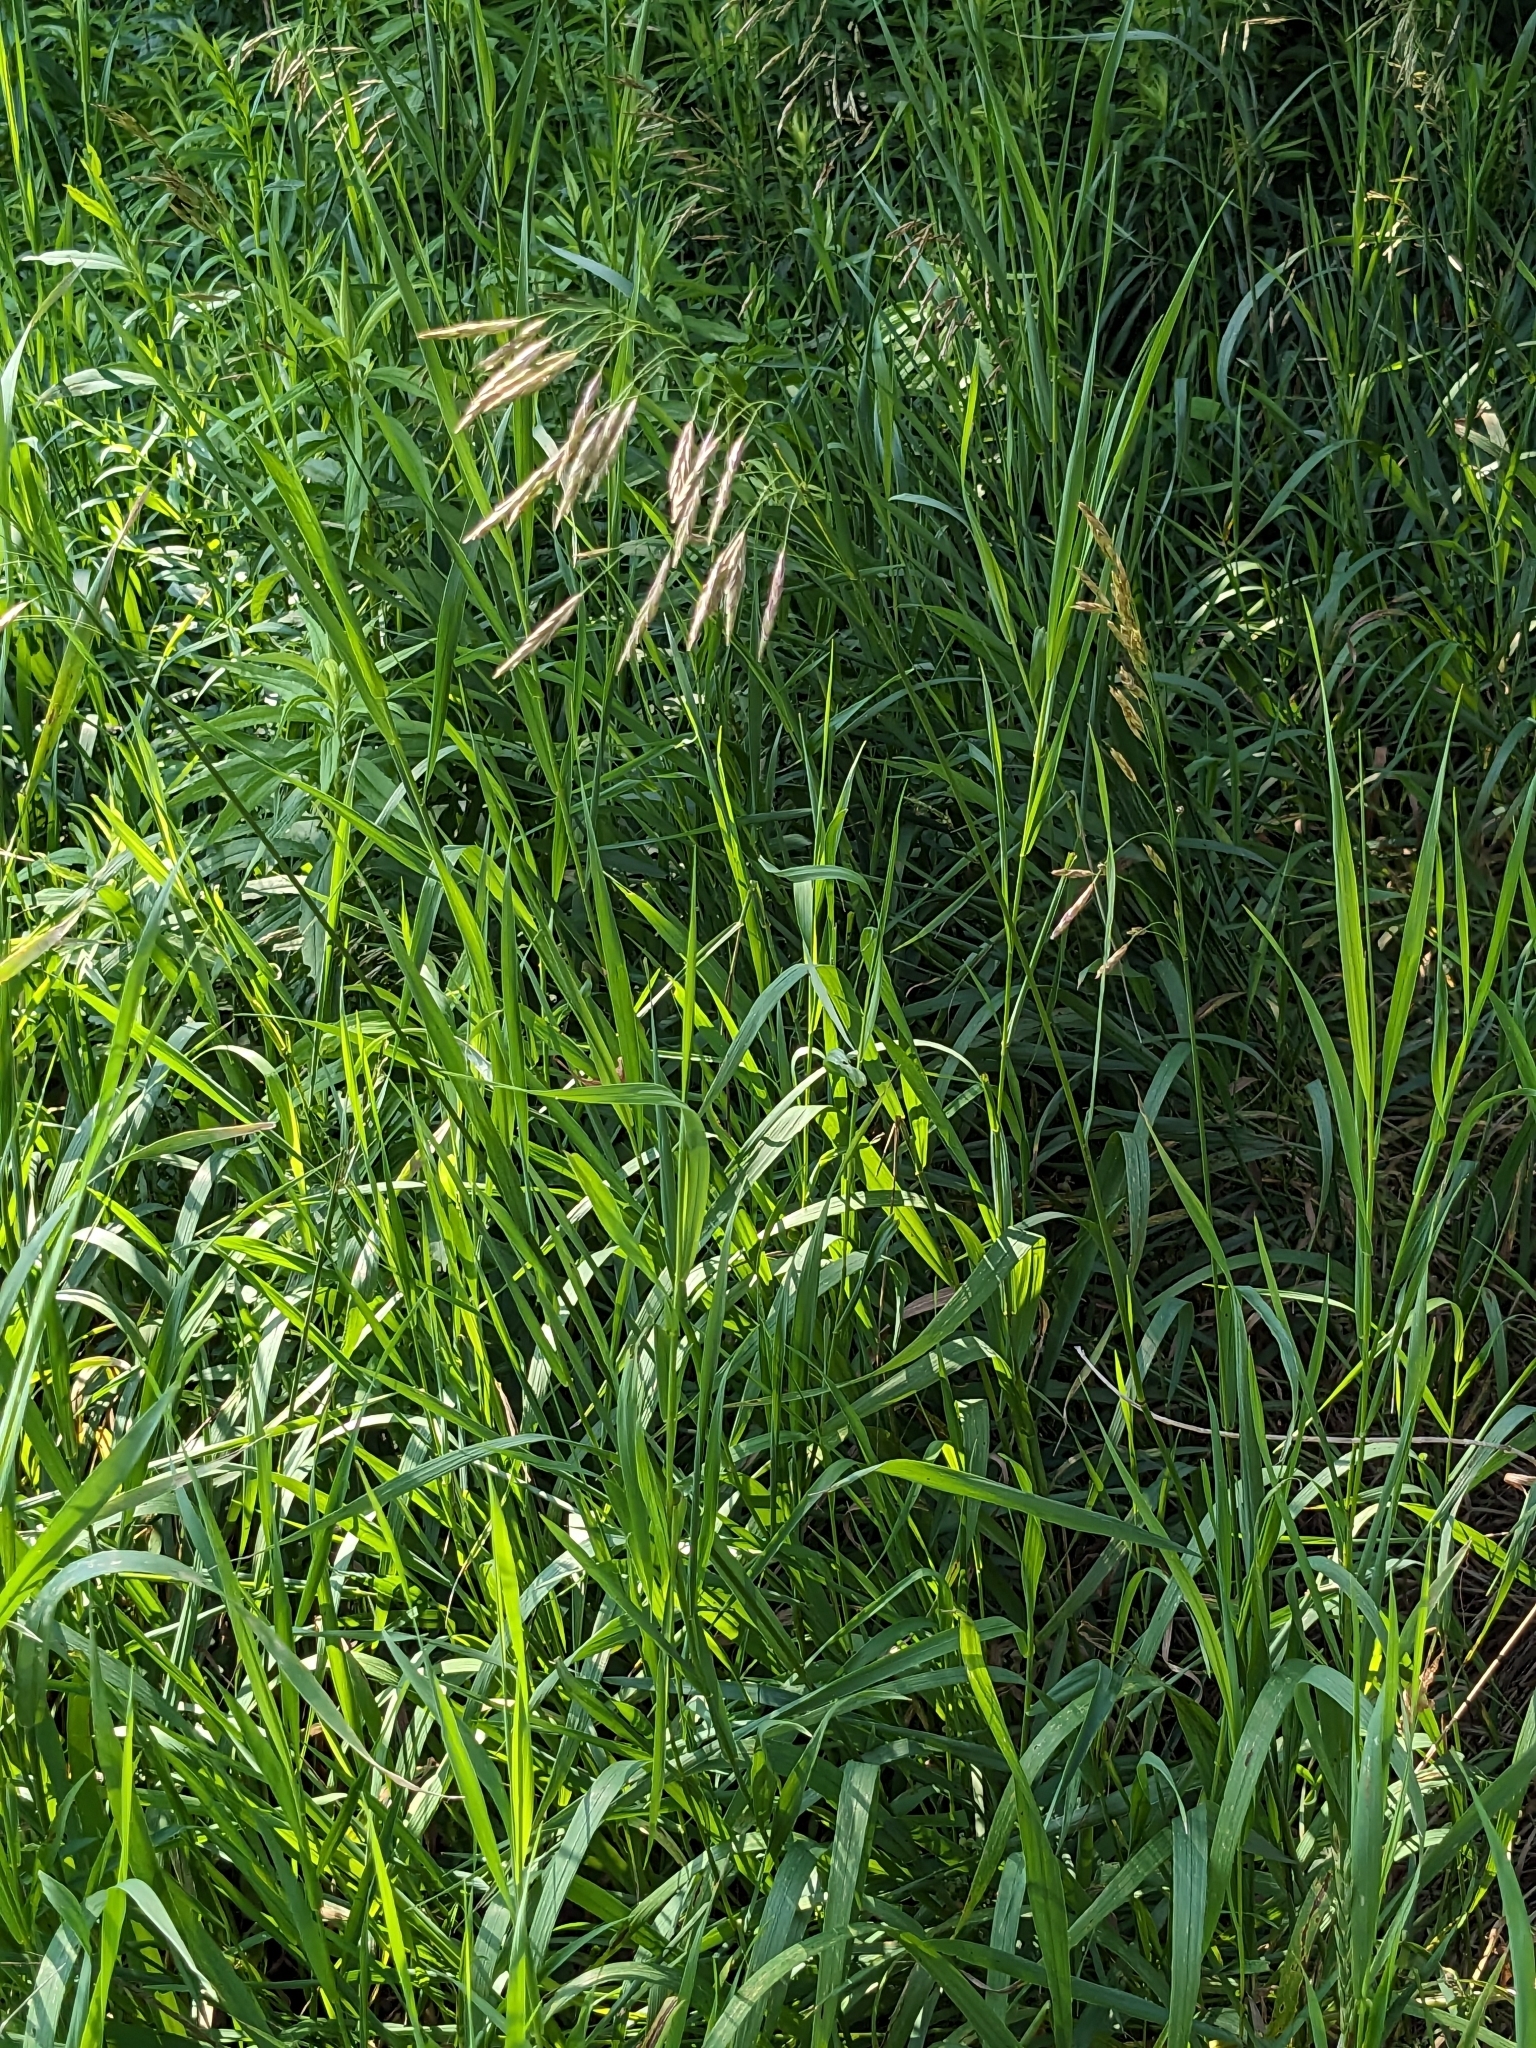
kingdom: Plantae
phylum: Tracheophyta
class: Liliopsida
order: Poales
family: Poaceae
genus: Bromus
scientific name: Bromus inermis
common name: Smooth brome
